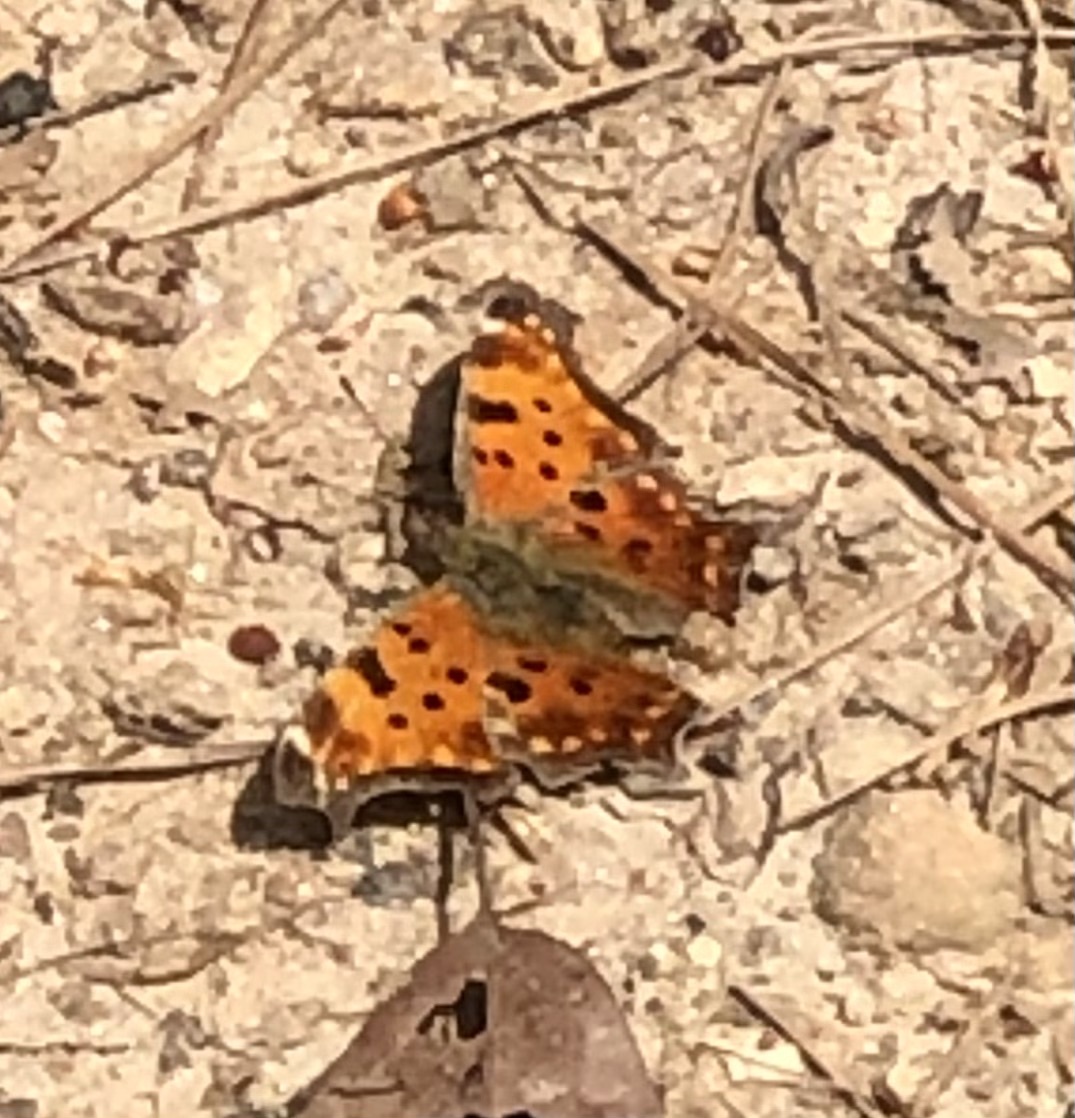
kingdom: Animalia
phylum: Arthropoda
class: Insecta
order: Lepidoptera
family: Nymphalidae
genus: Polygonia
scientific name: Polygonia comma
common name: Eastern comma
